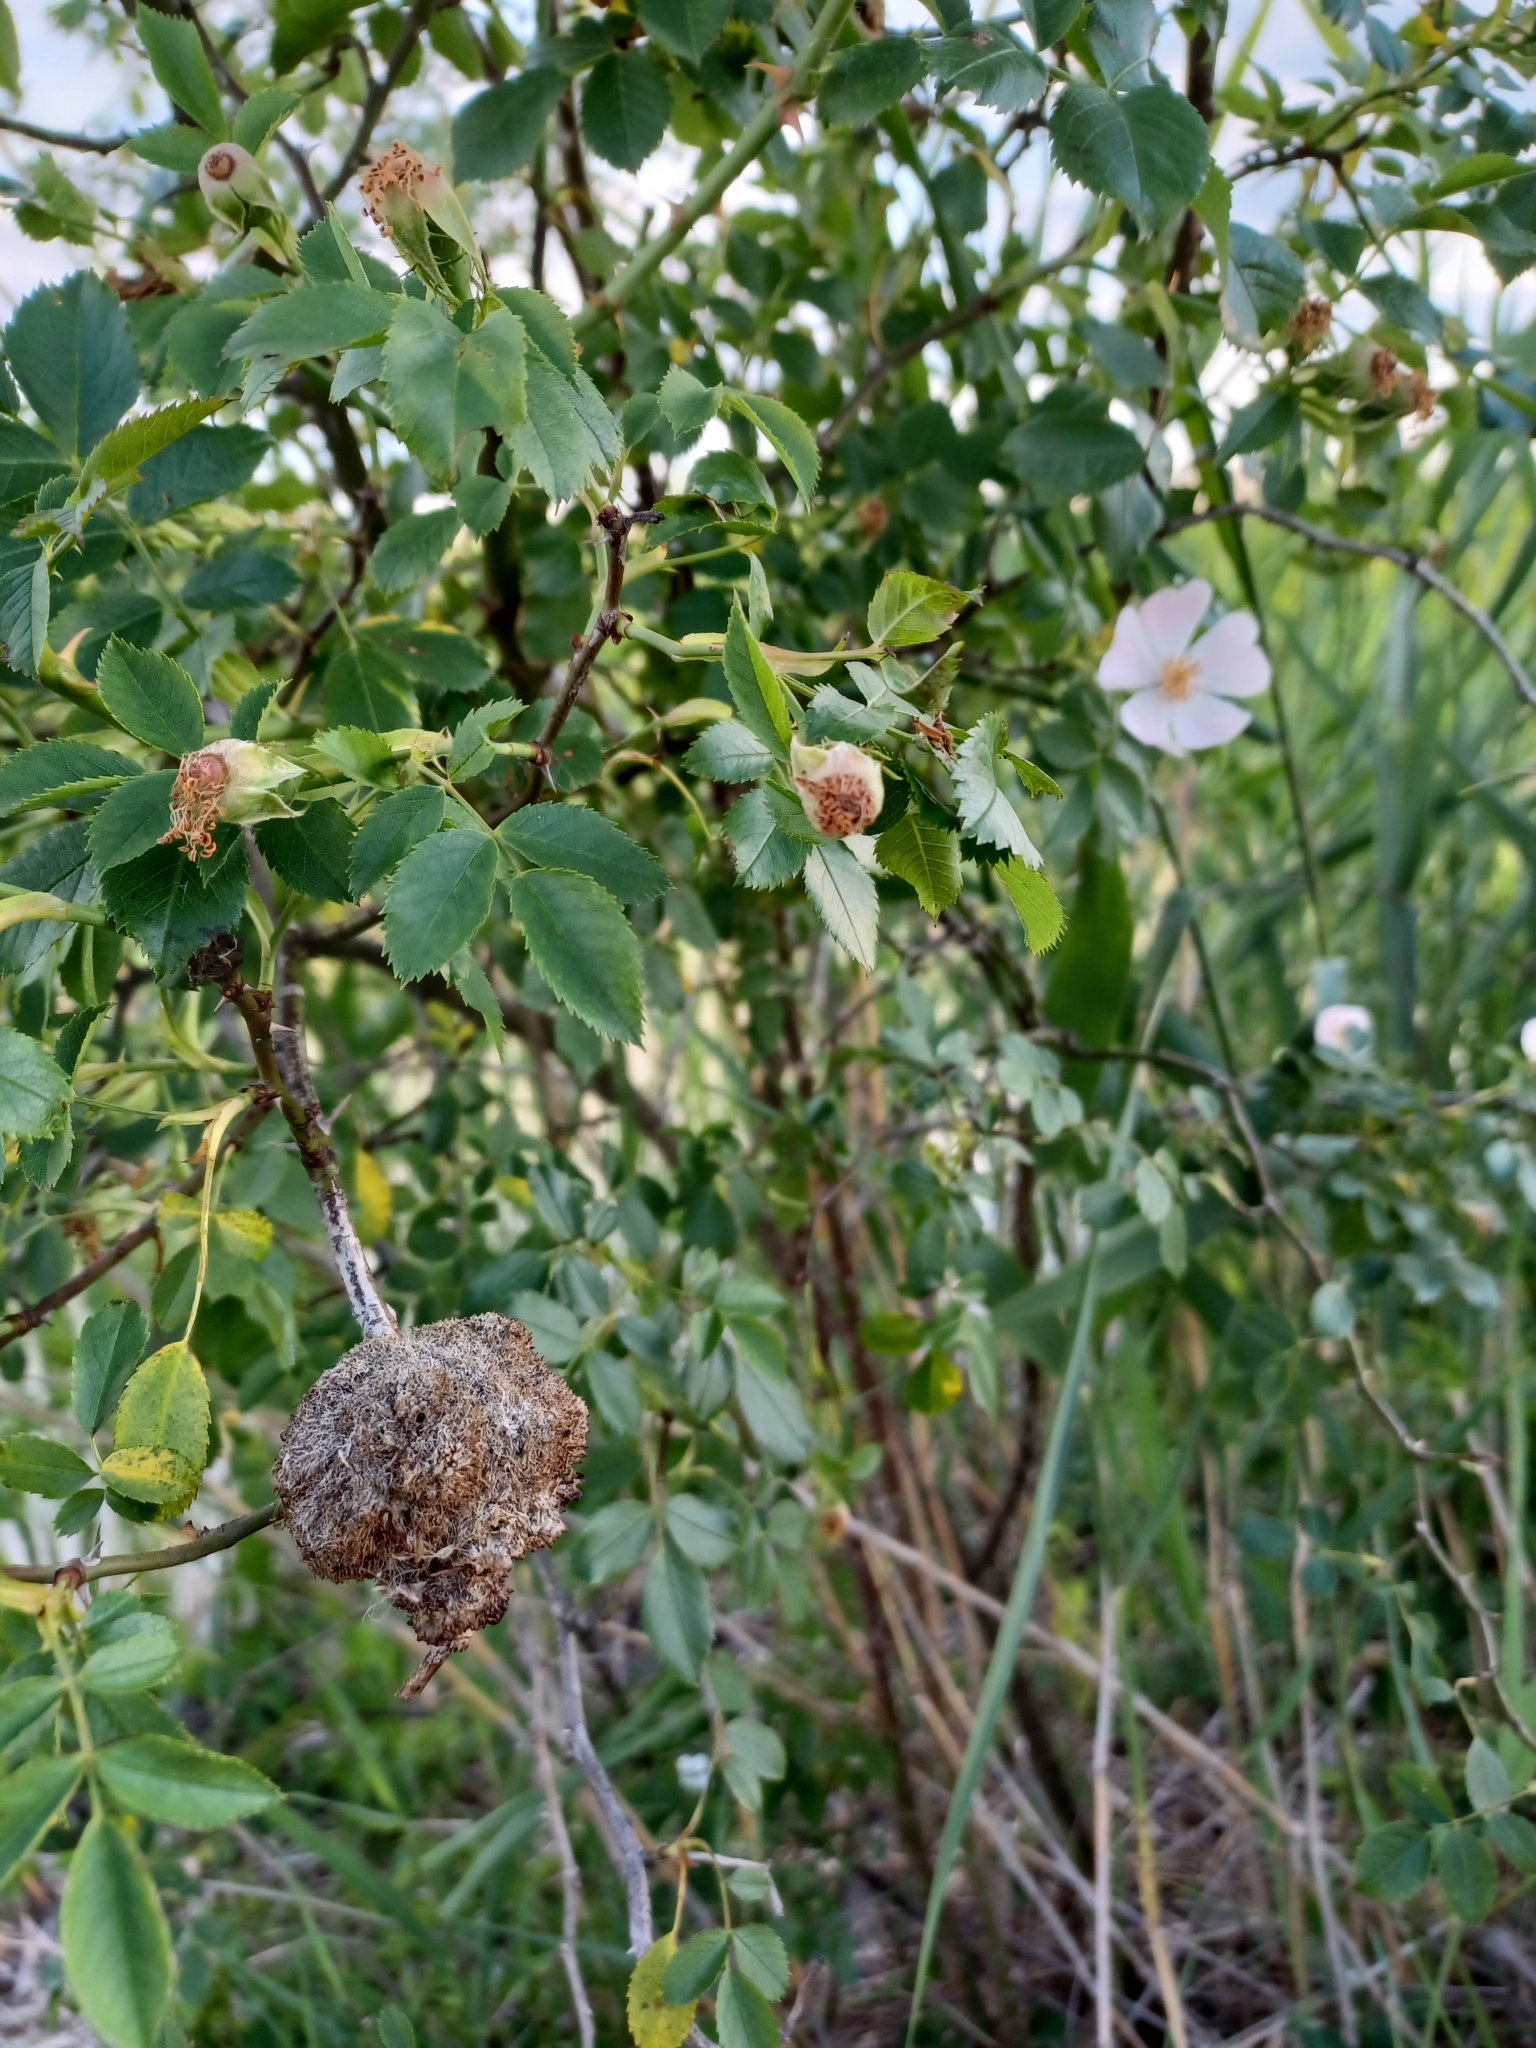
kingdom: Animalia
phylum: Arthropoda
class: Insecta
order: Hymenoptera
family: Cynipidae
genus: Diplolepis
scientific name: Diplolepis rosae
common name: Bedeguar gall
